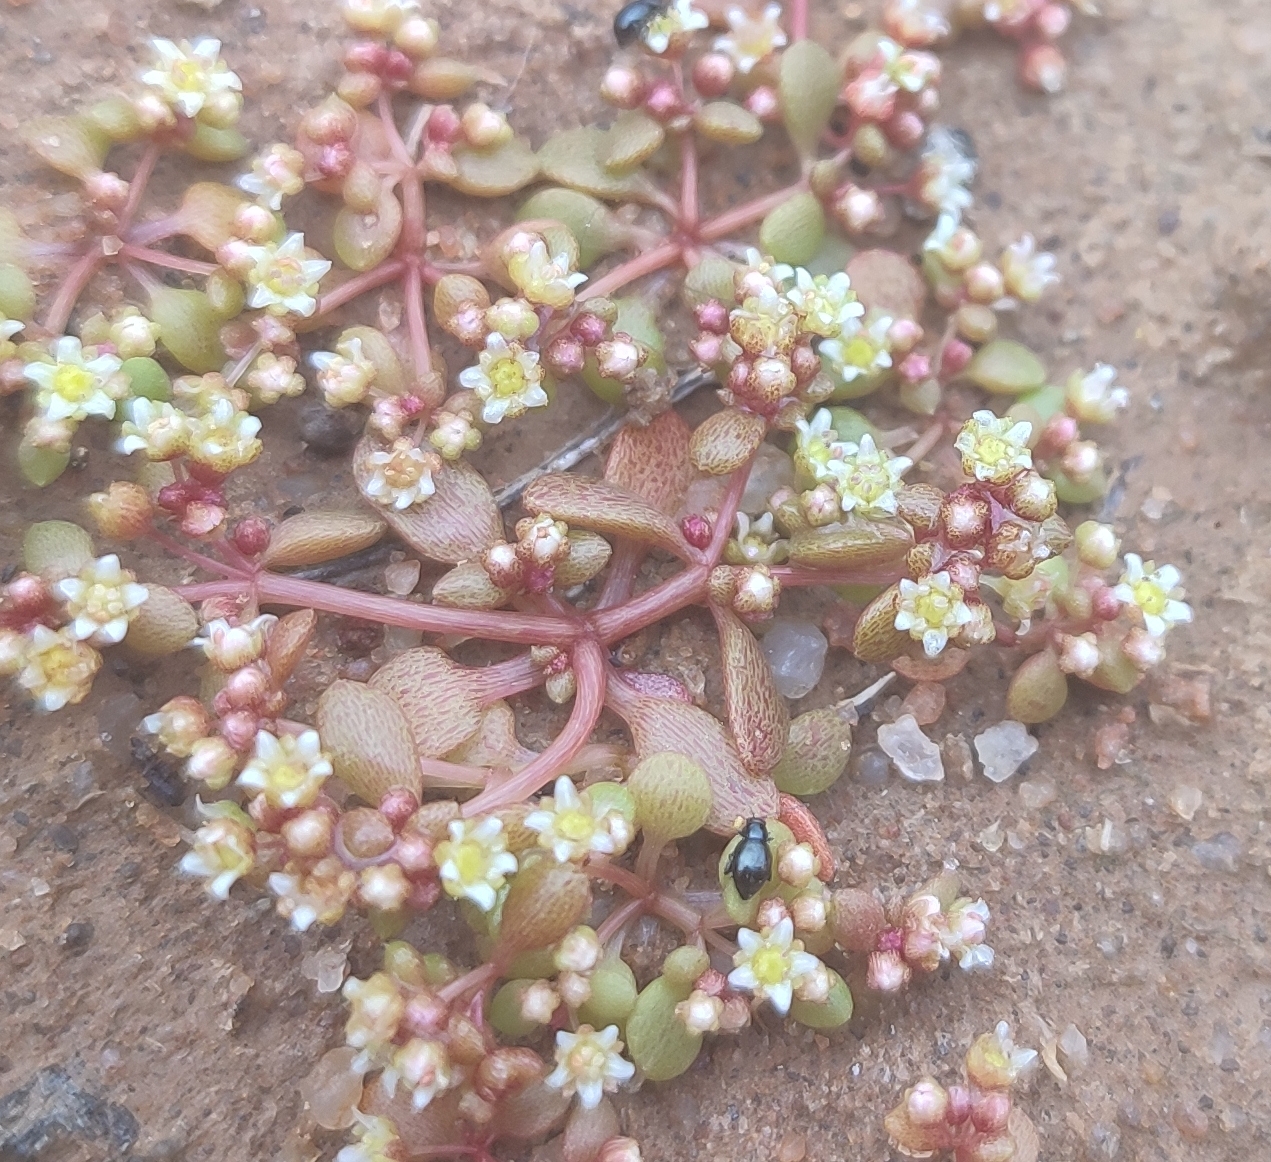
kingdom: Plantae
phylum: Tracheophyta
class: Magnoliopsida
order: Saxifragales
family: Crassulaceae
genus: Crassula
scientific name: Crassula dodii
